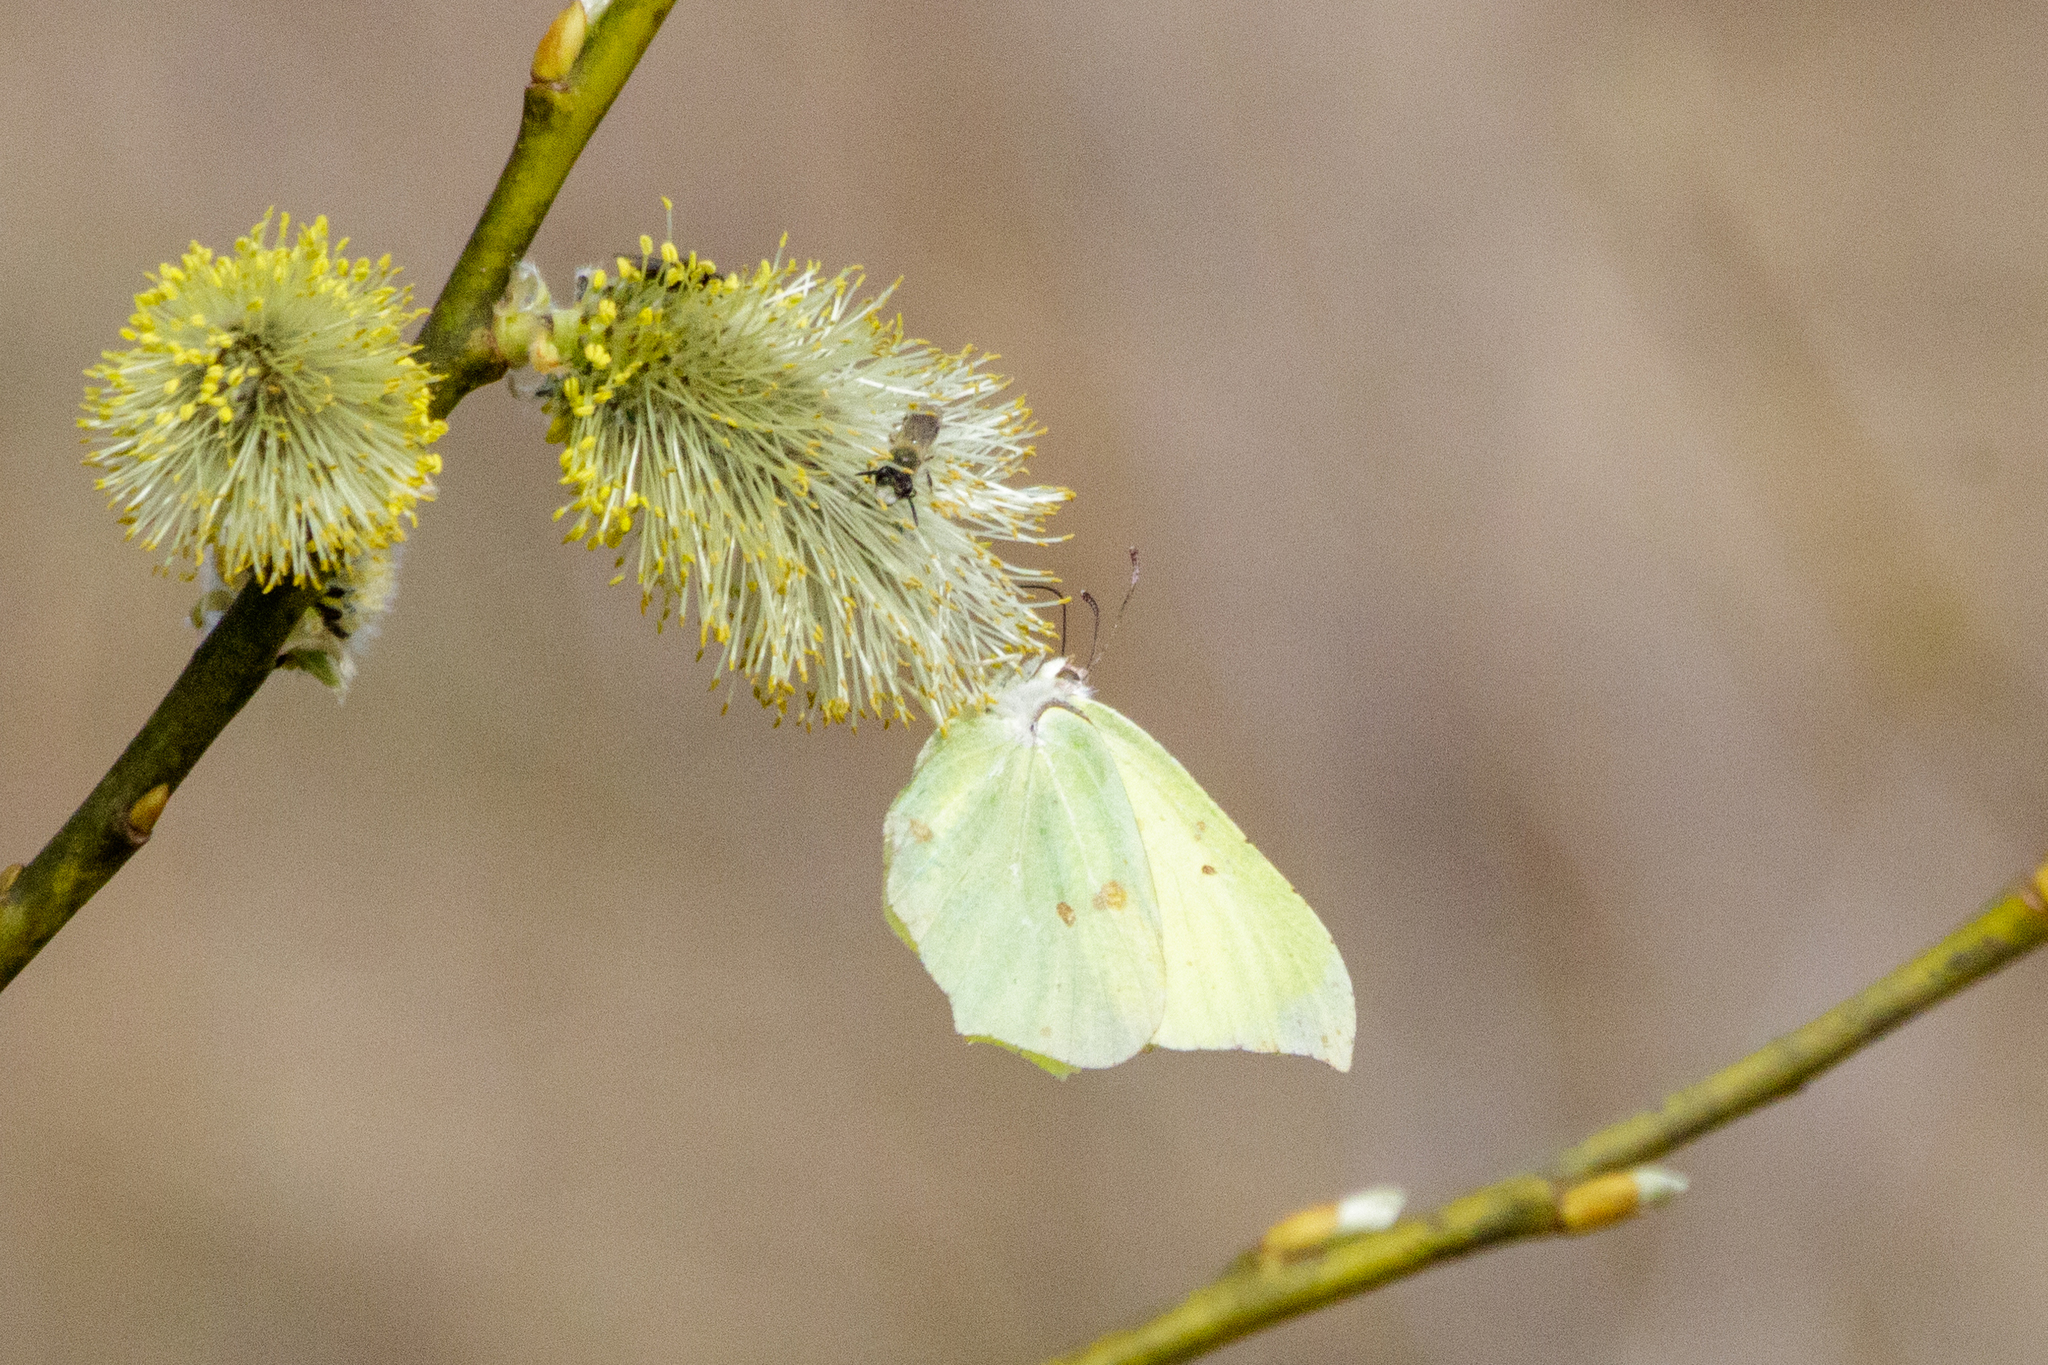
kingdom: Animalia
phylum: Arthropoda
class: Insecta
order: Lepidoptera
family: Pieridae
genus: Gonepteryx
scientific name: Gonepteryx rhamni
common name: Brimstone
